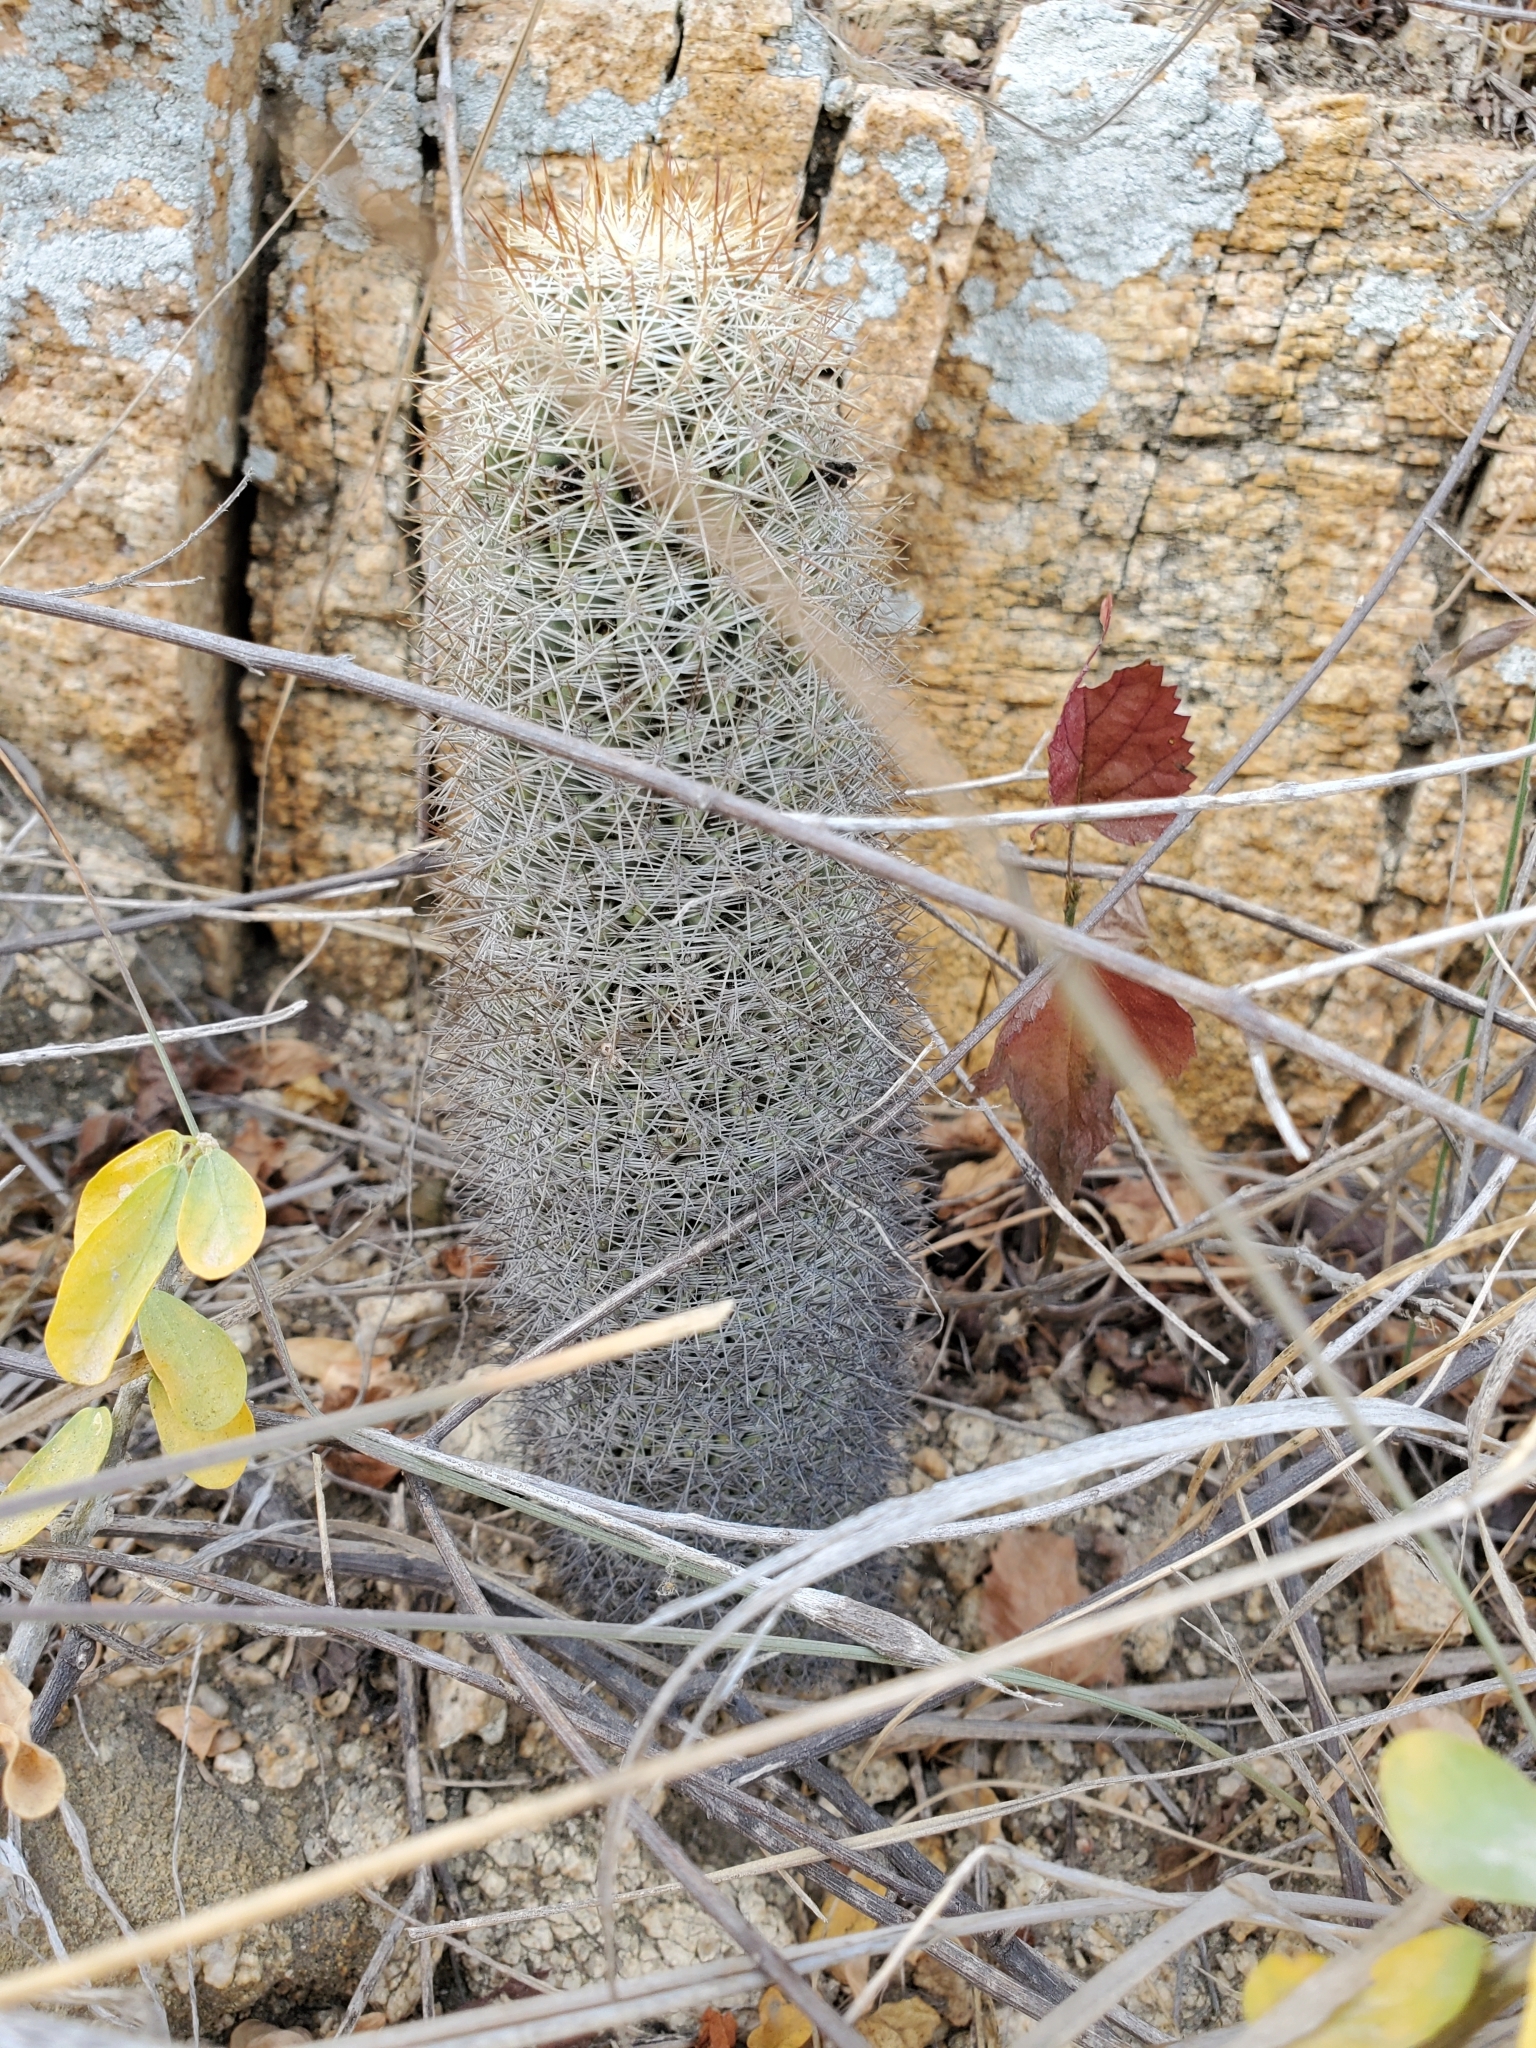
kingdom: Plantae
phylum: Tracheophyta
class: Magnoliopsida
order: Caryophyllales
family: Cactaceae
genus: Cochemiea
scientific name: Cochemiea armillata
